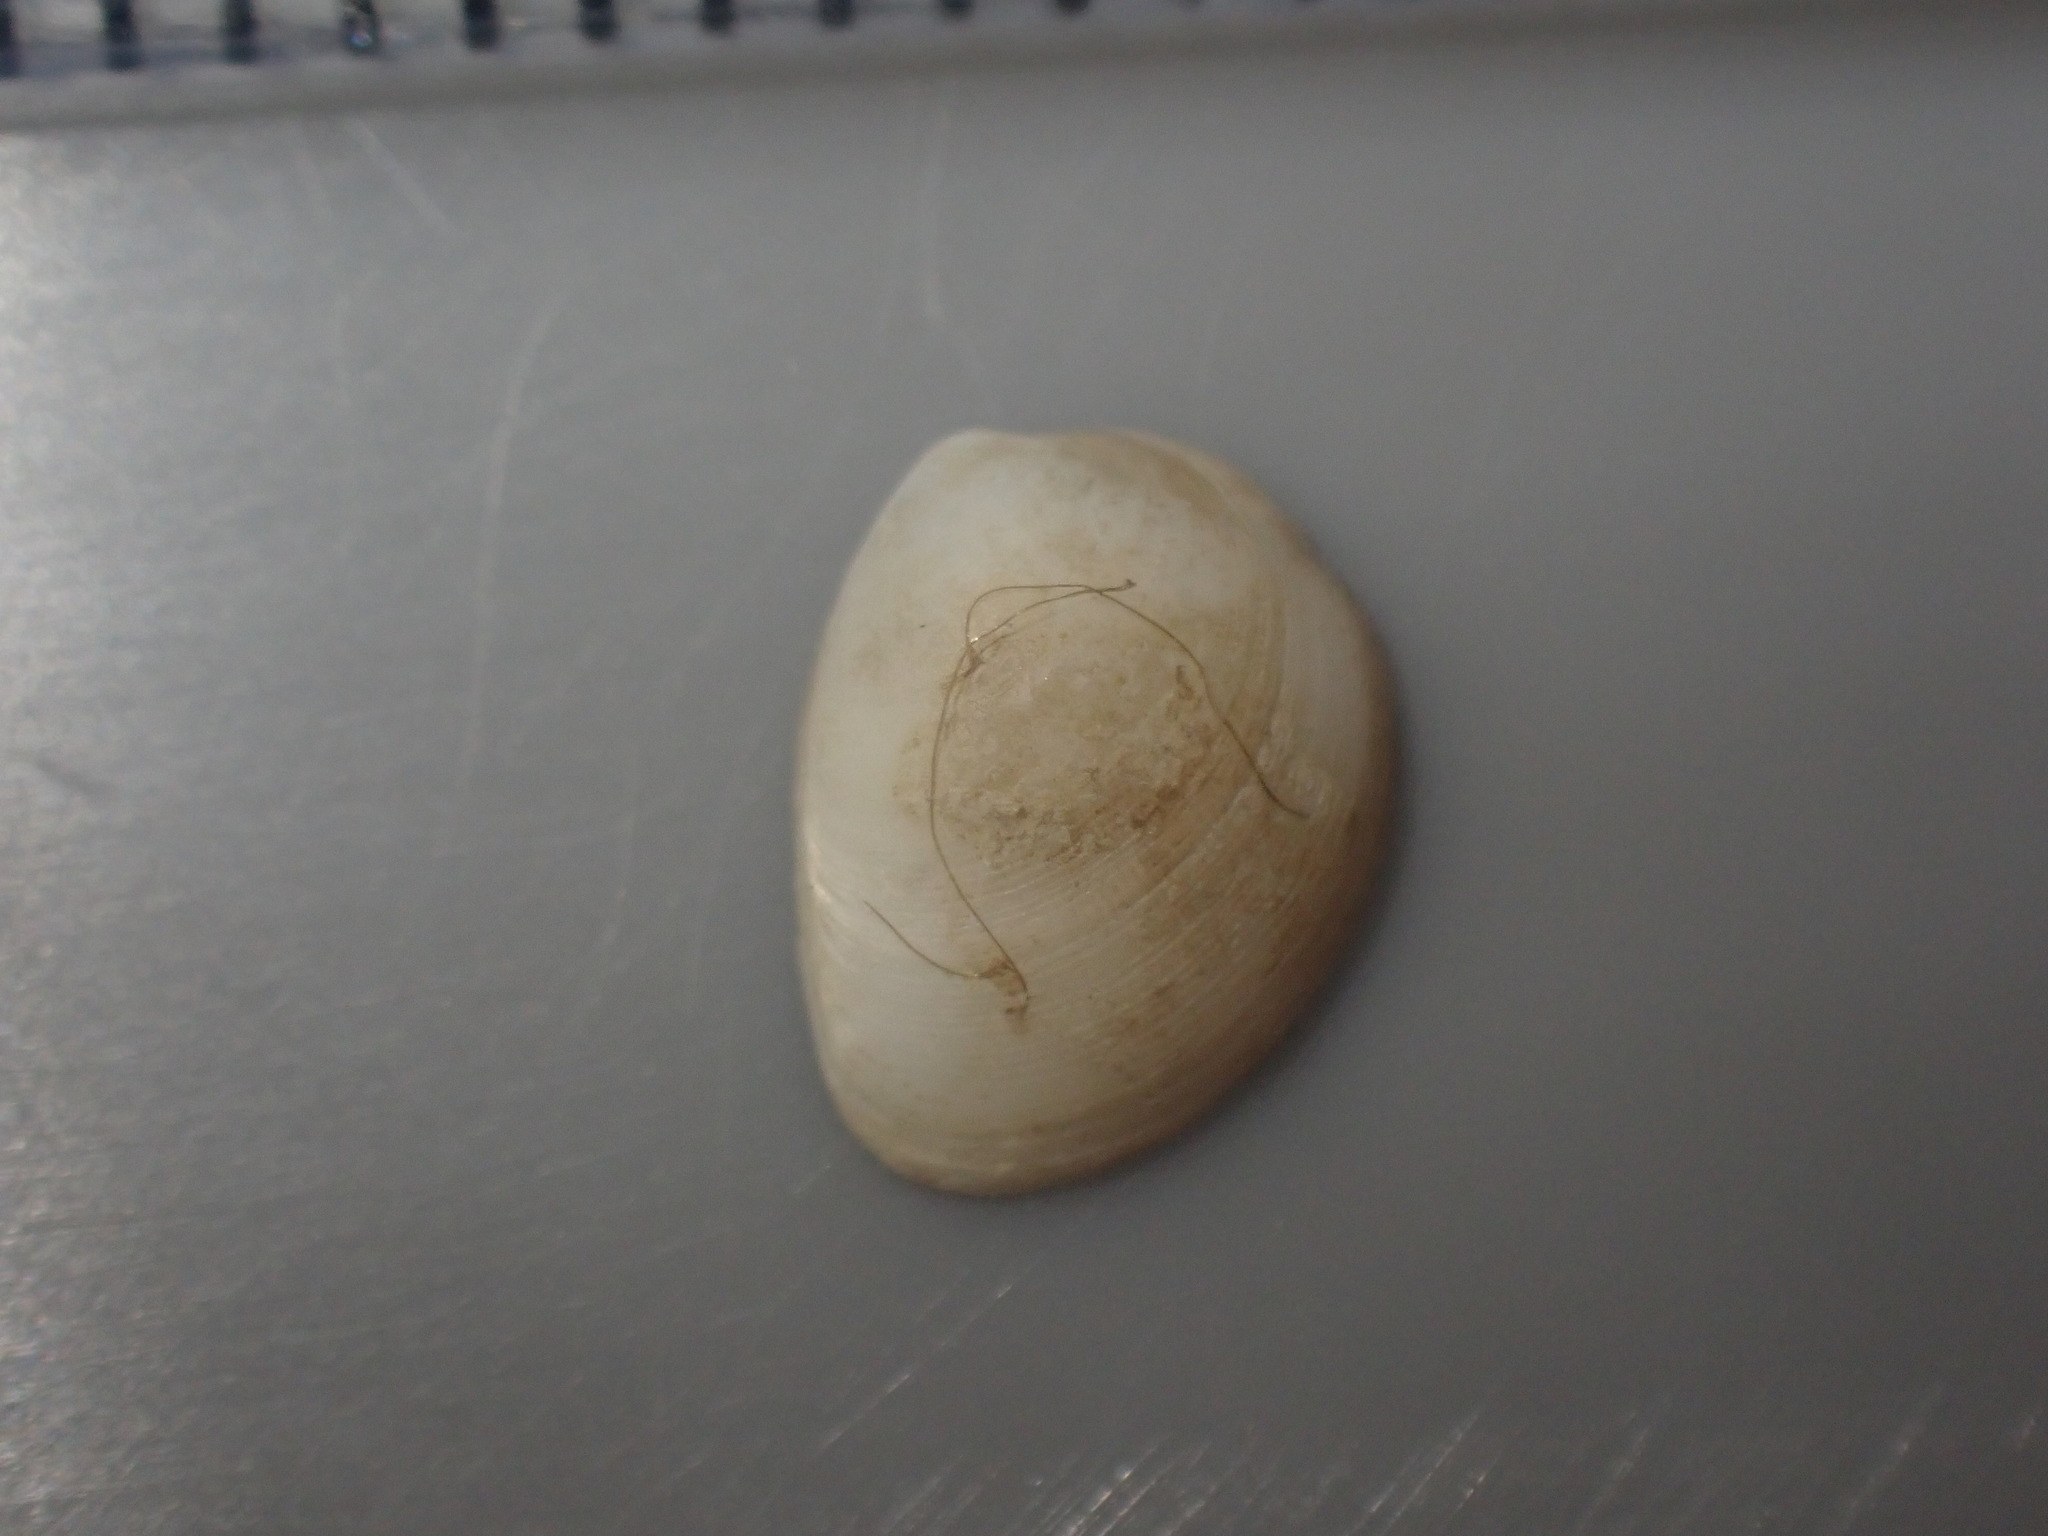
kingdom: Animalia
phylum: Mollusca
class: Bivalvia
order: Nuculida
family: Nuculidae
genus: Linucula
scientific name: Linucula hartvigiana
